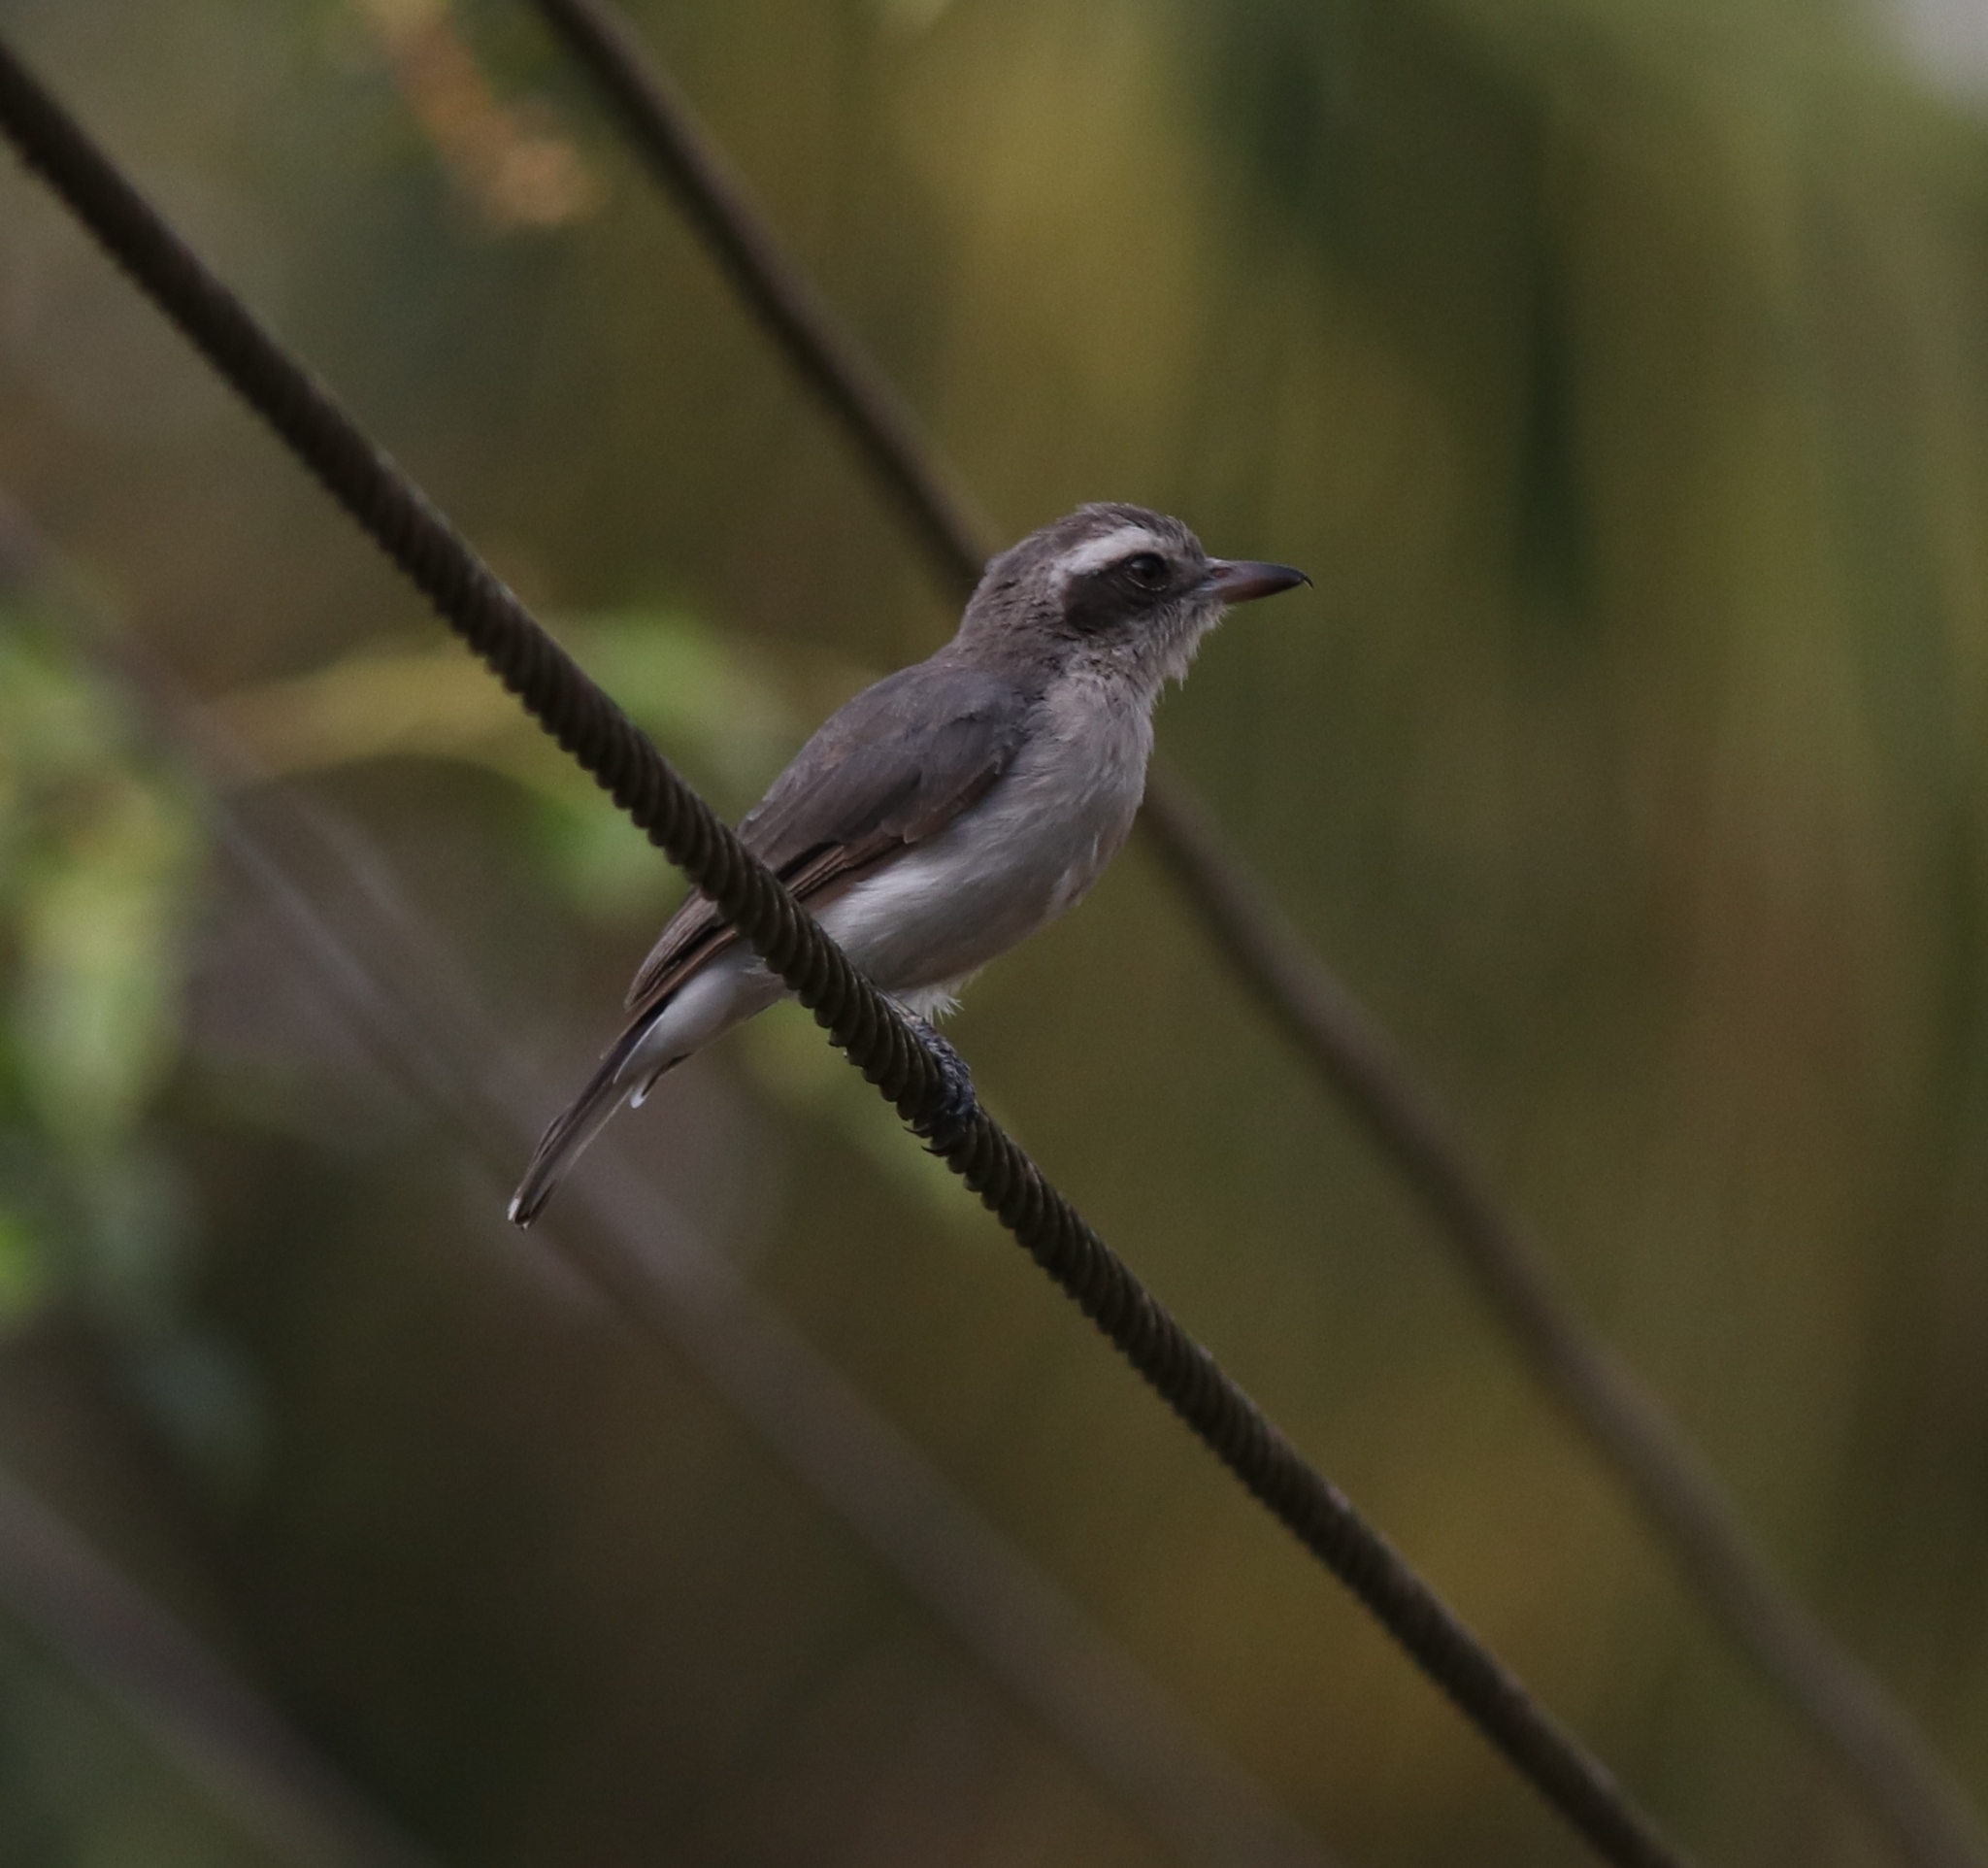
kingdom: Animalia
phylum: Chordata
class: Aves
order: Passeriformes
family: Tephrodornithidae
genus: Tephrodornis
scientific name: Tephrodornis pondicerianus
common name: Common woodshrike
